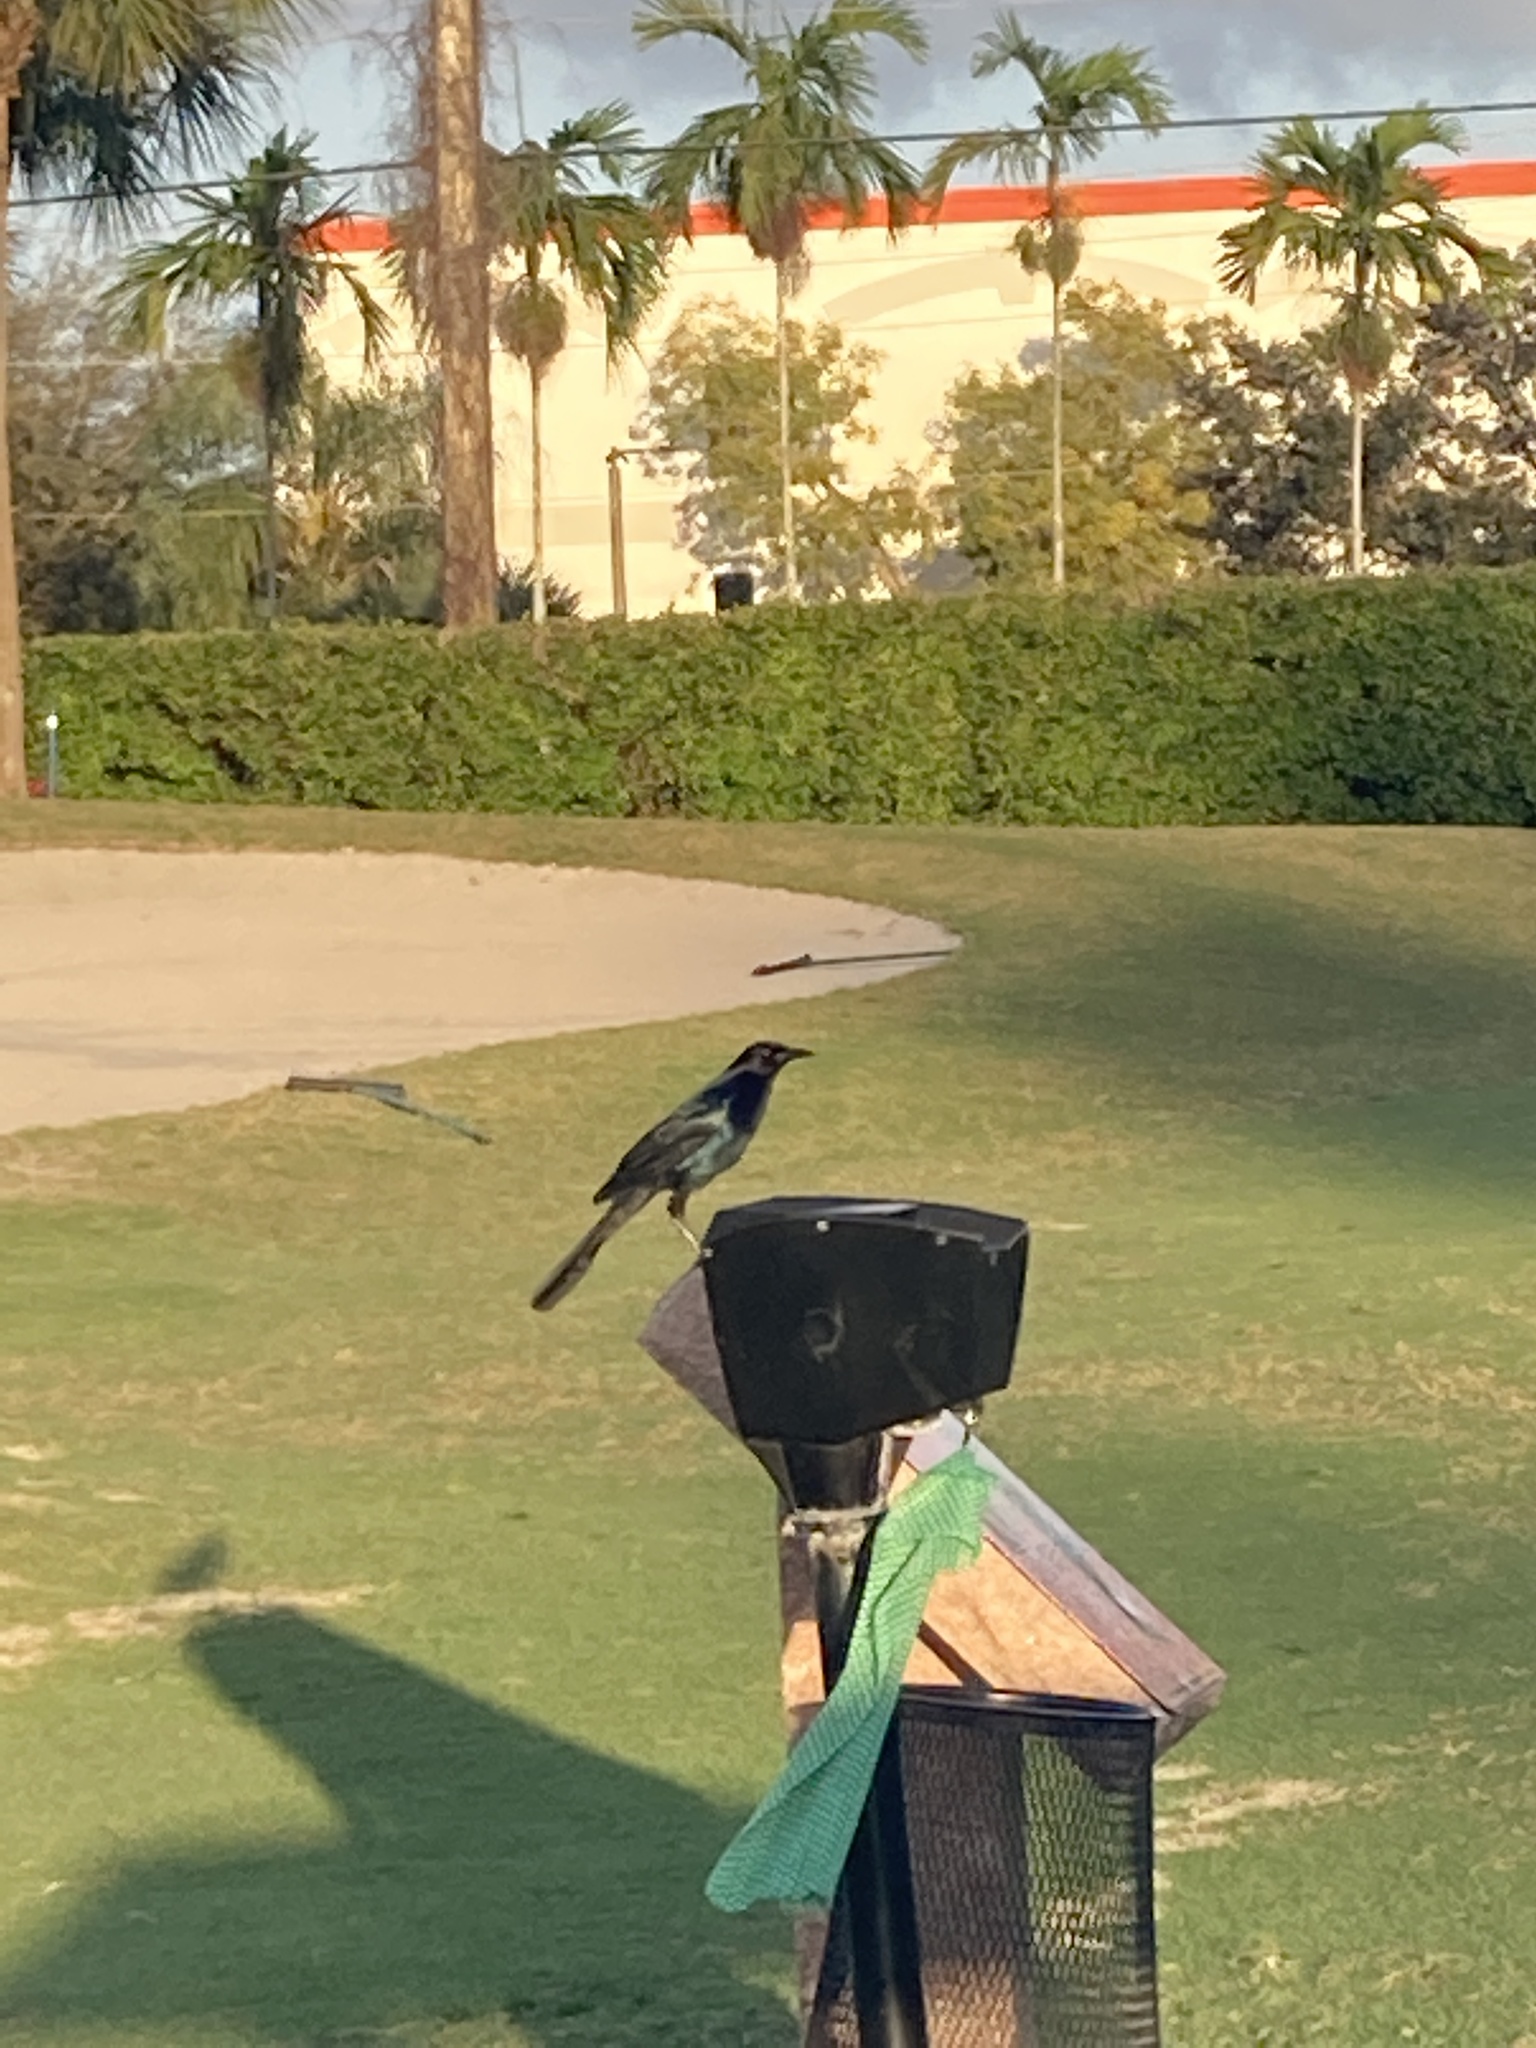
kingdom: Animalia
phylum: Chordata
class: Aves
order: Passeriformes
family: Icteridae
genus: Quiscalus
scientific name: Quiscalus major
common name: Boat-tailed grackle
